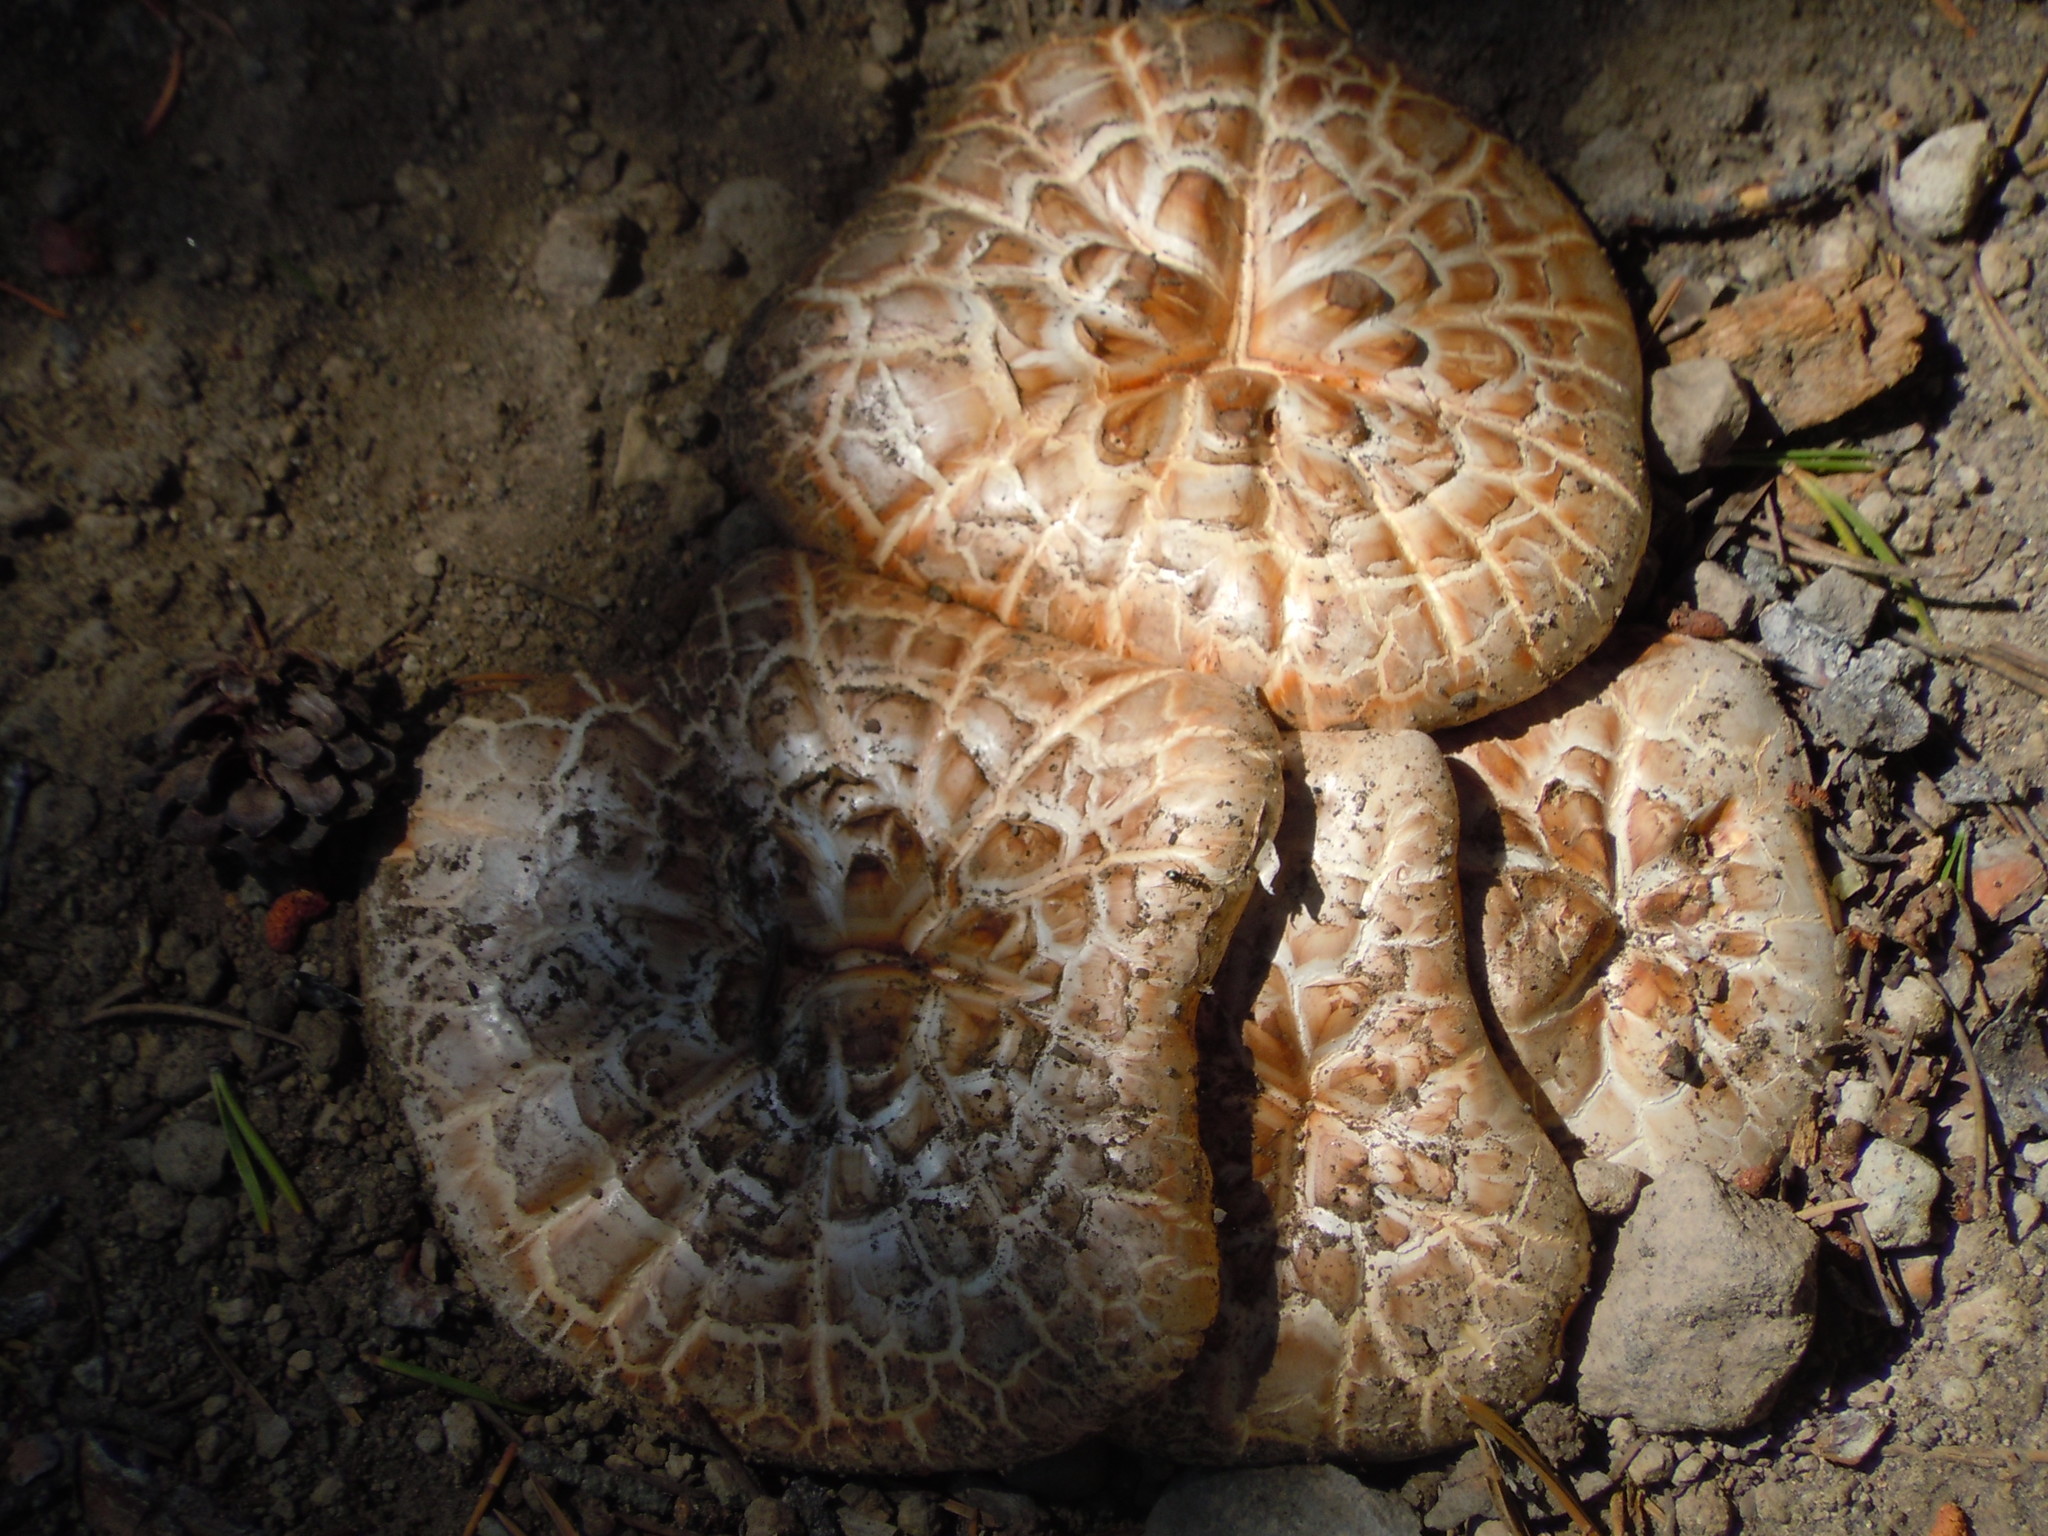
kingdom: Fungi
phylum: Basidiomycota
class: Agaricomycetes
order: Gloeophyllales
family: Gloeophyllaceae
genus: Neolentinus
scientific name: Neolentinus ponderosus
